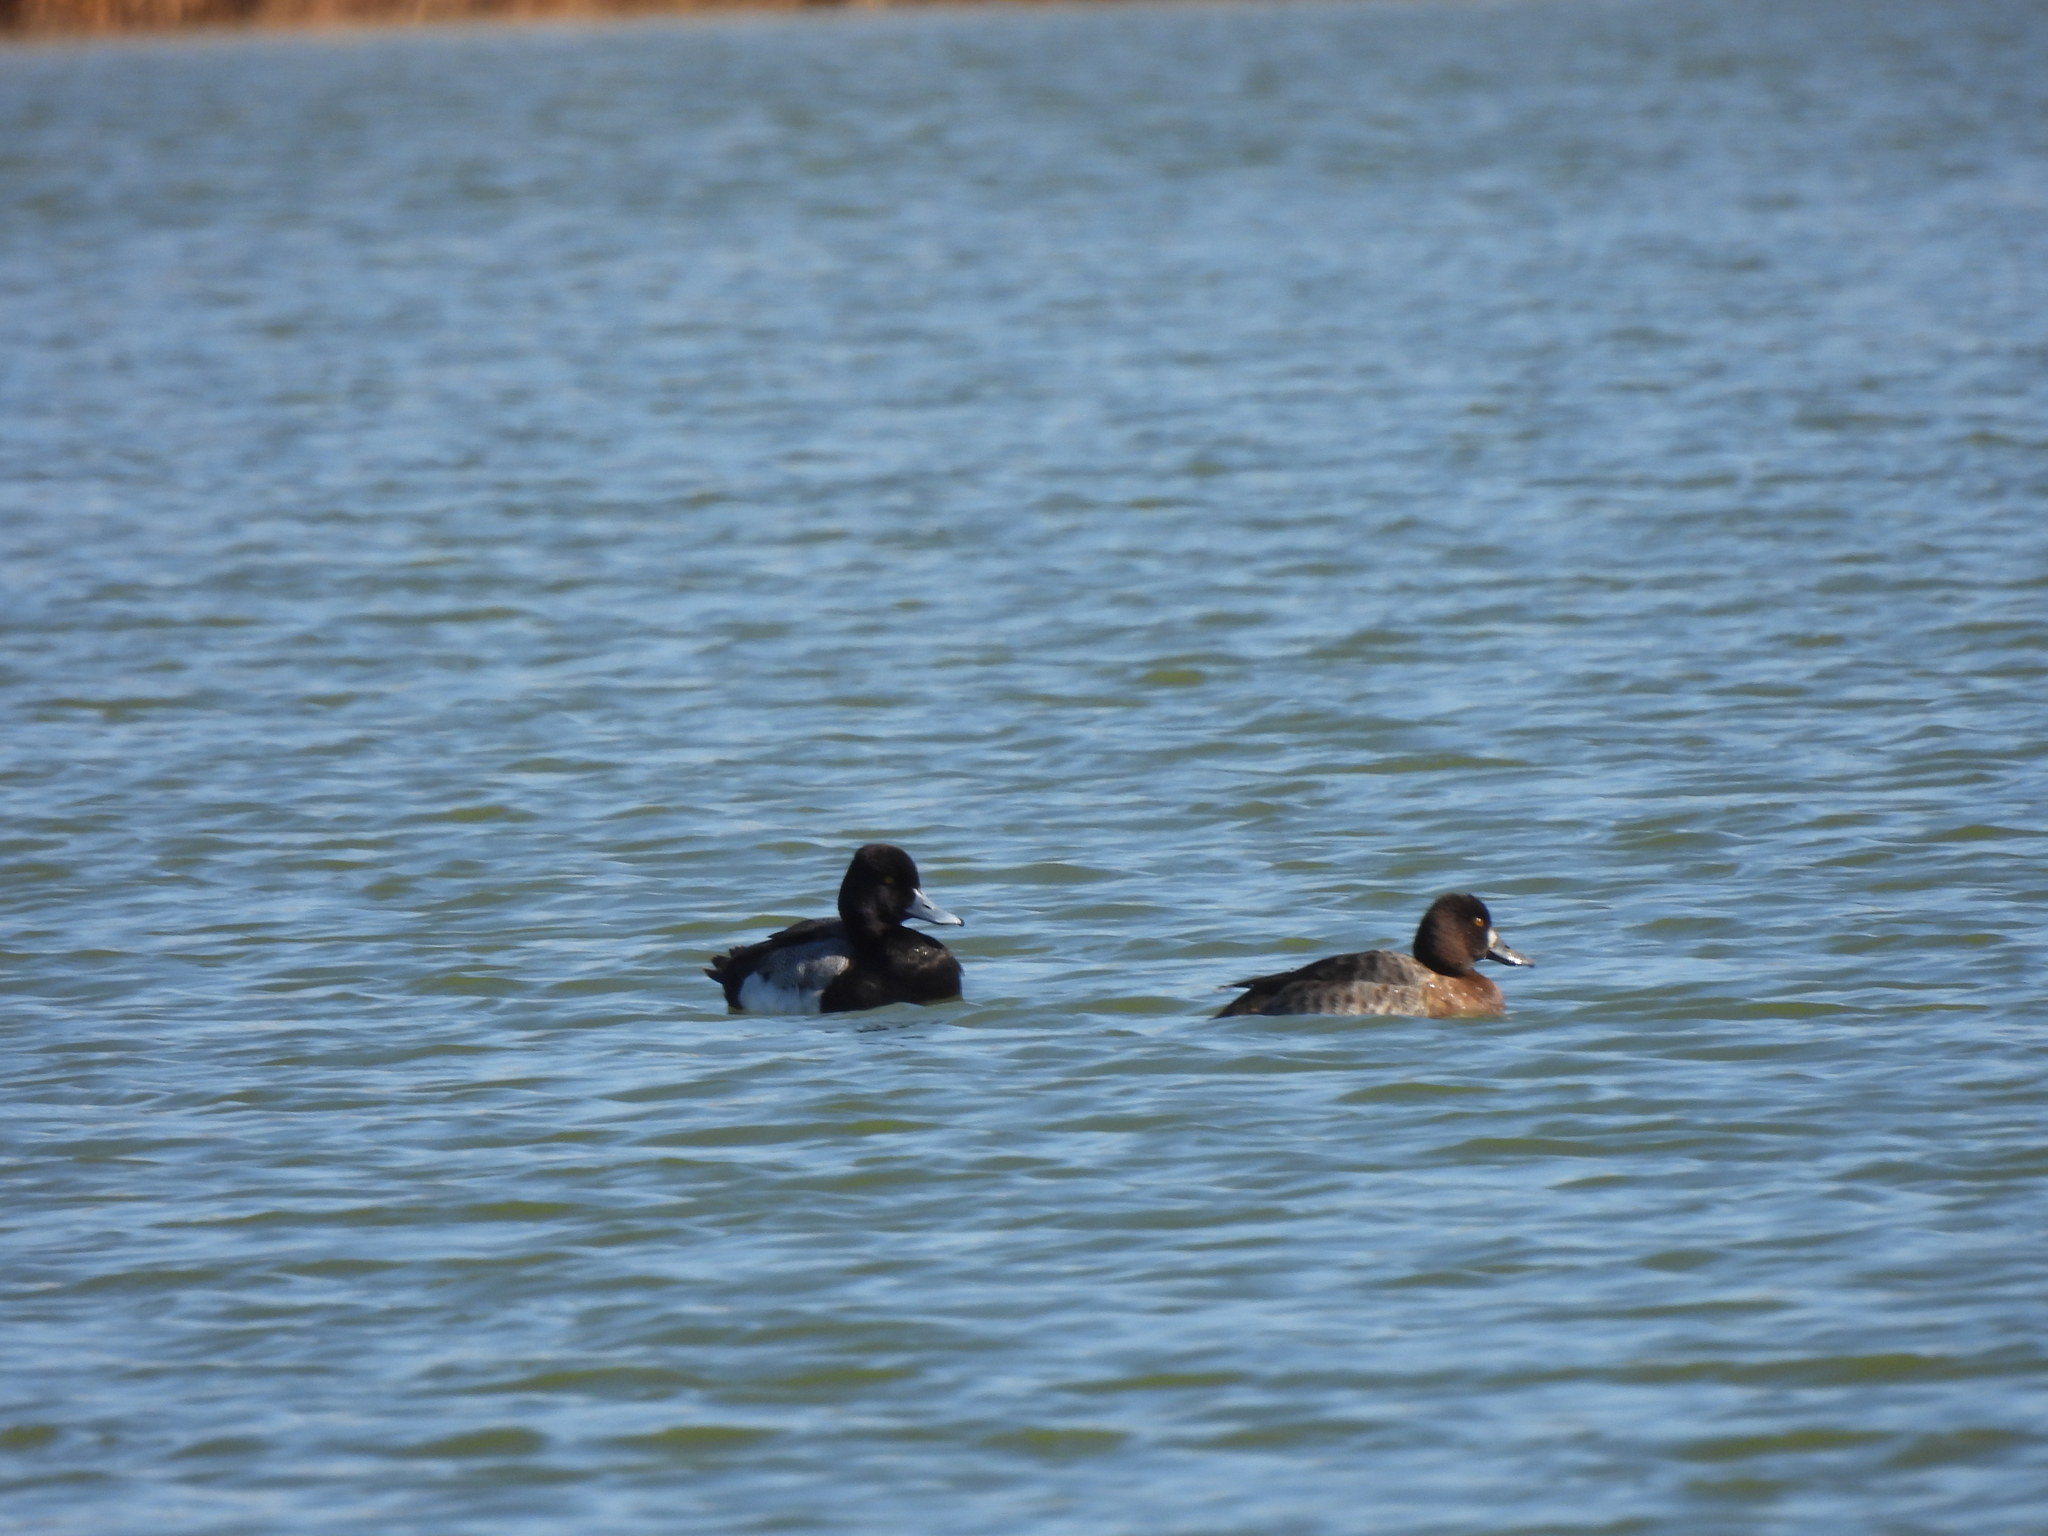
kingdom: Animalia
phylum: Chordata
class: Aves
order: Anseriformes
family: Anatidae
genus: Aythya
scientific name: Aythya affinis
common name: Lesser scaup
